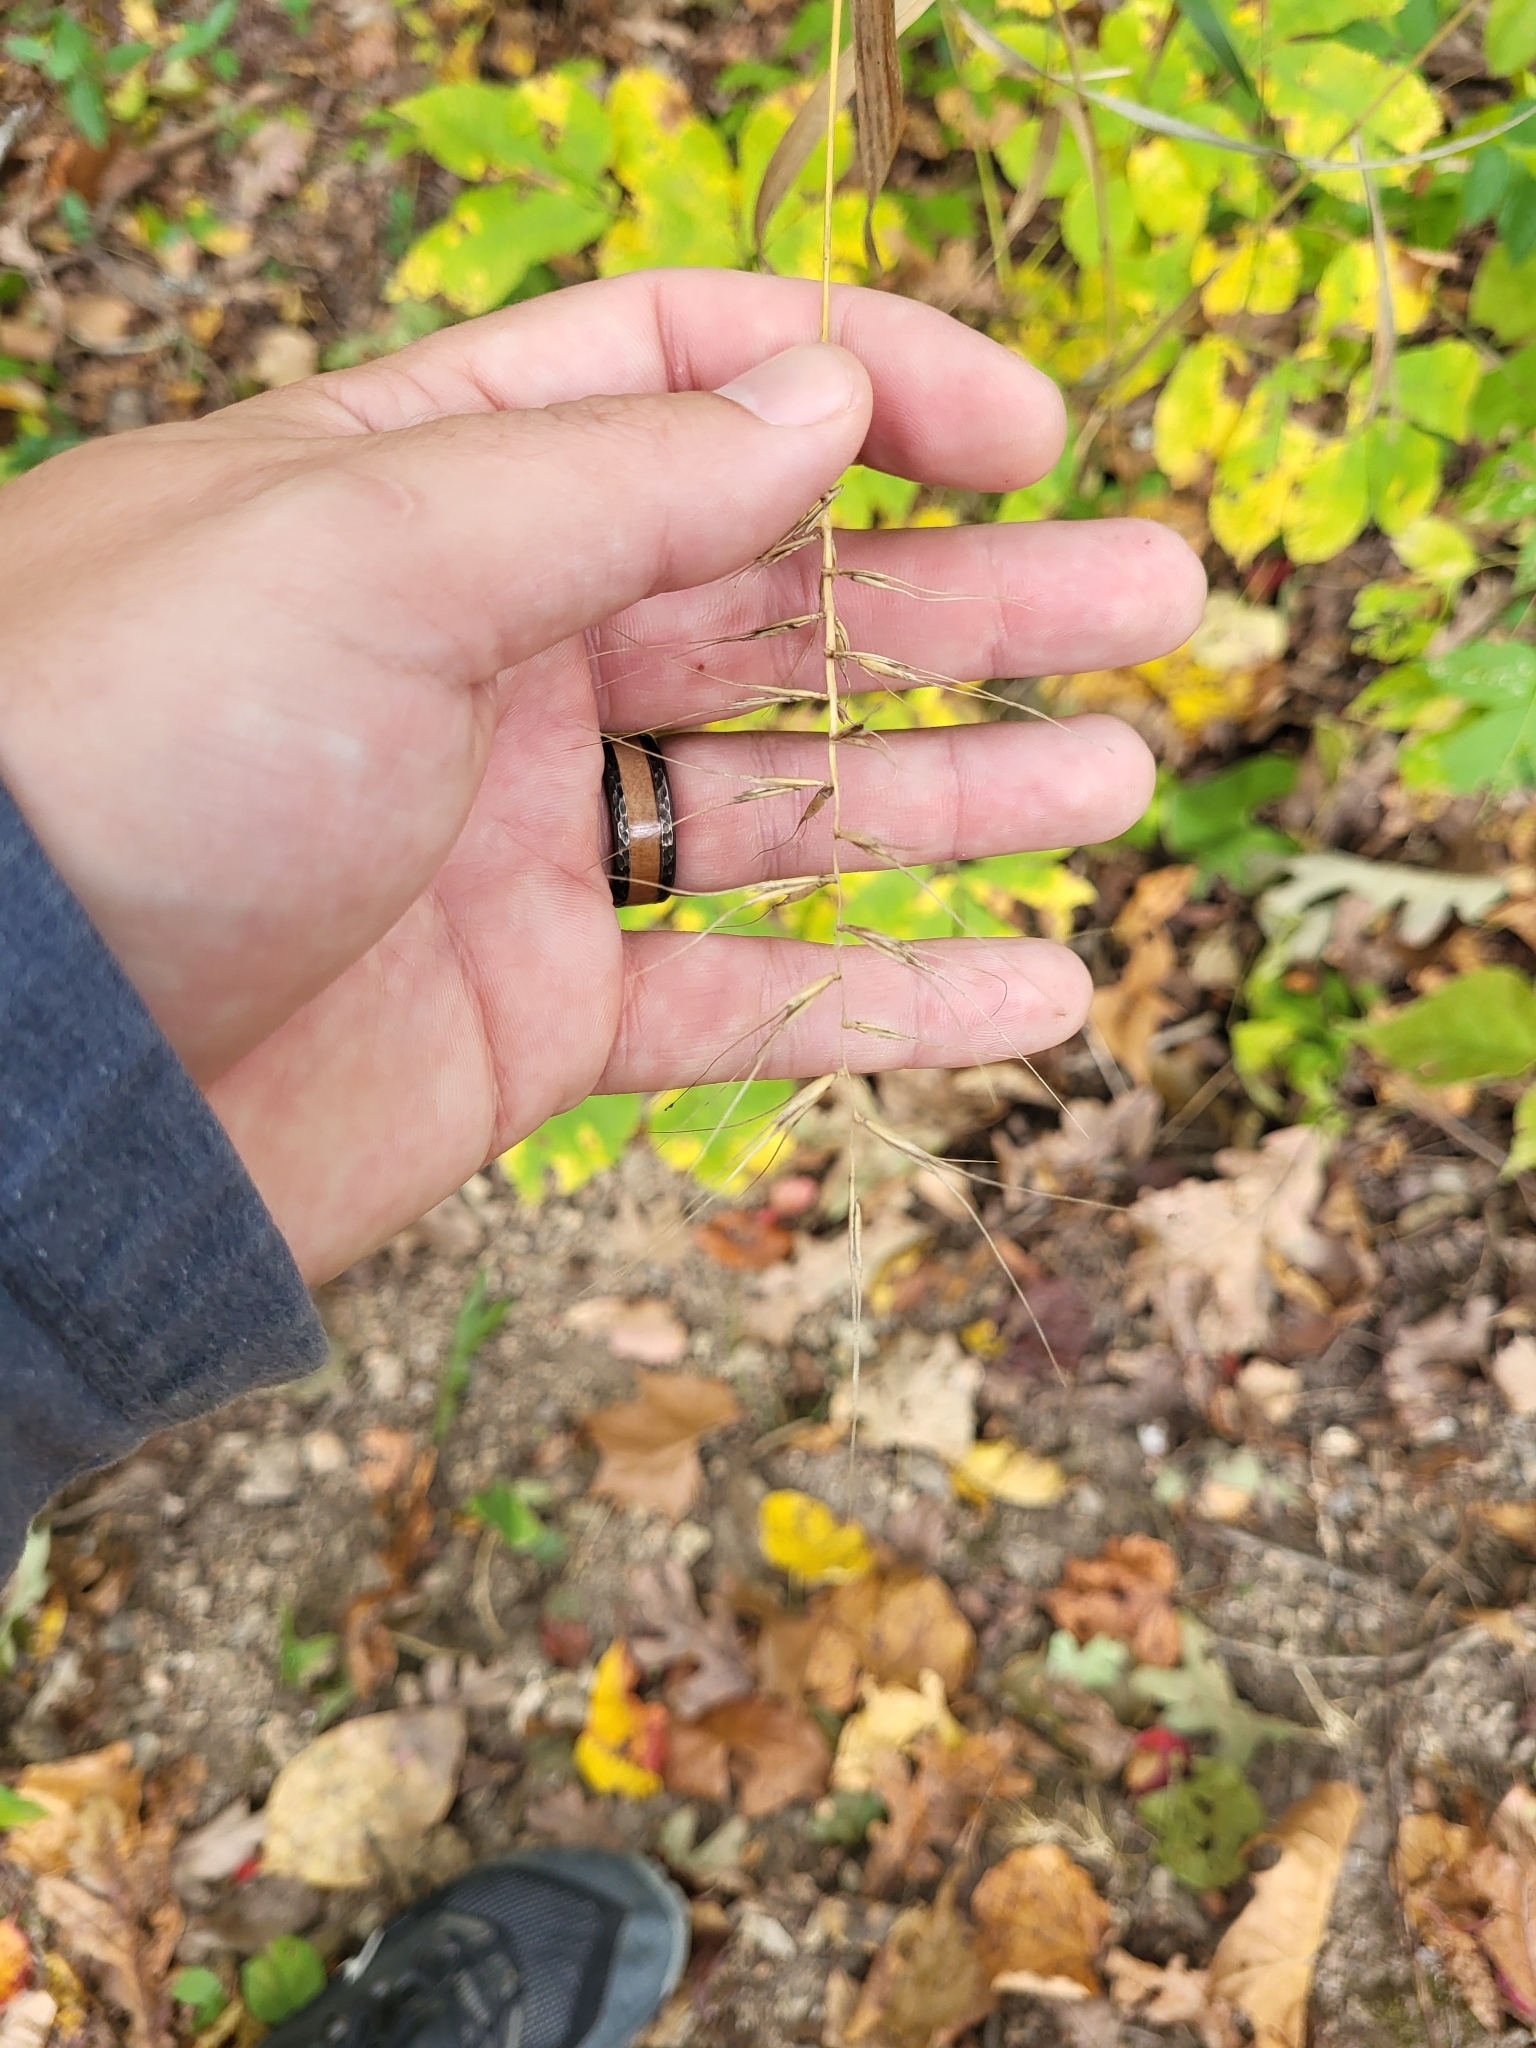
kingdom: Plantae
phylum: Tracheophyta
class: Liliopsida
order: Poales
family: Poaceae
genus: Elymus
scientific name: Elymus hystrix
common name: Bottlebrush grass
